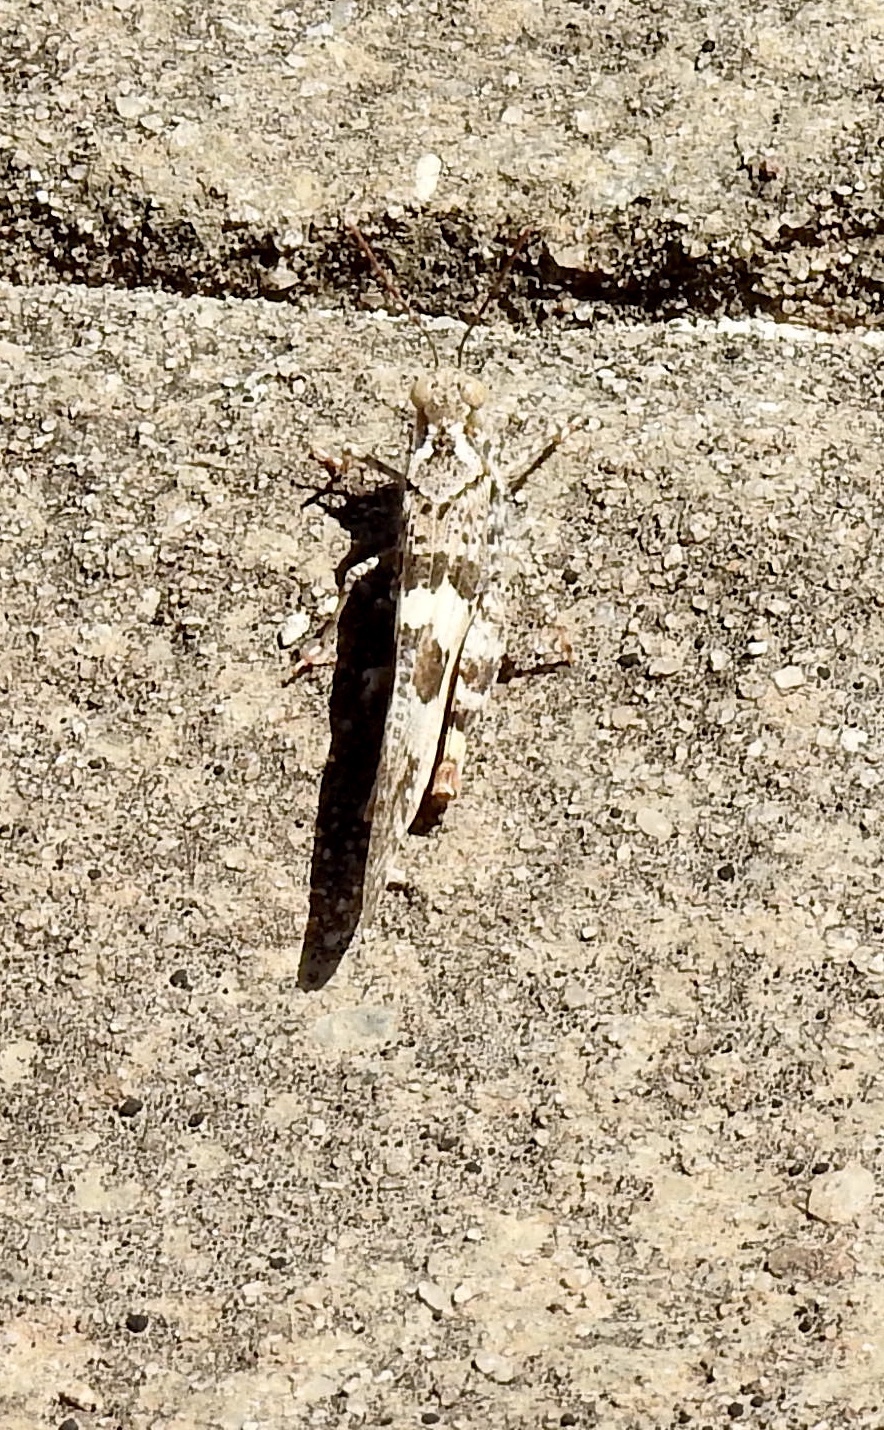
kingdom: Animalia
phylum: Arthropoda
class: Insecta
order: Orthoptera
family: Acrididae
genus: Trimerotropis
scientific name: Trimerotropis pallidipennis
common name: Pallid-winged grasshopper
